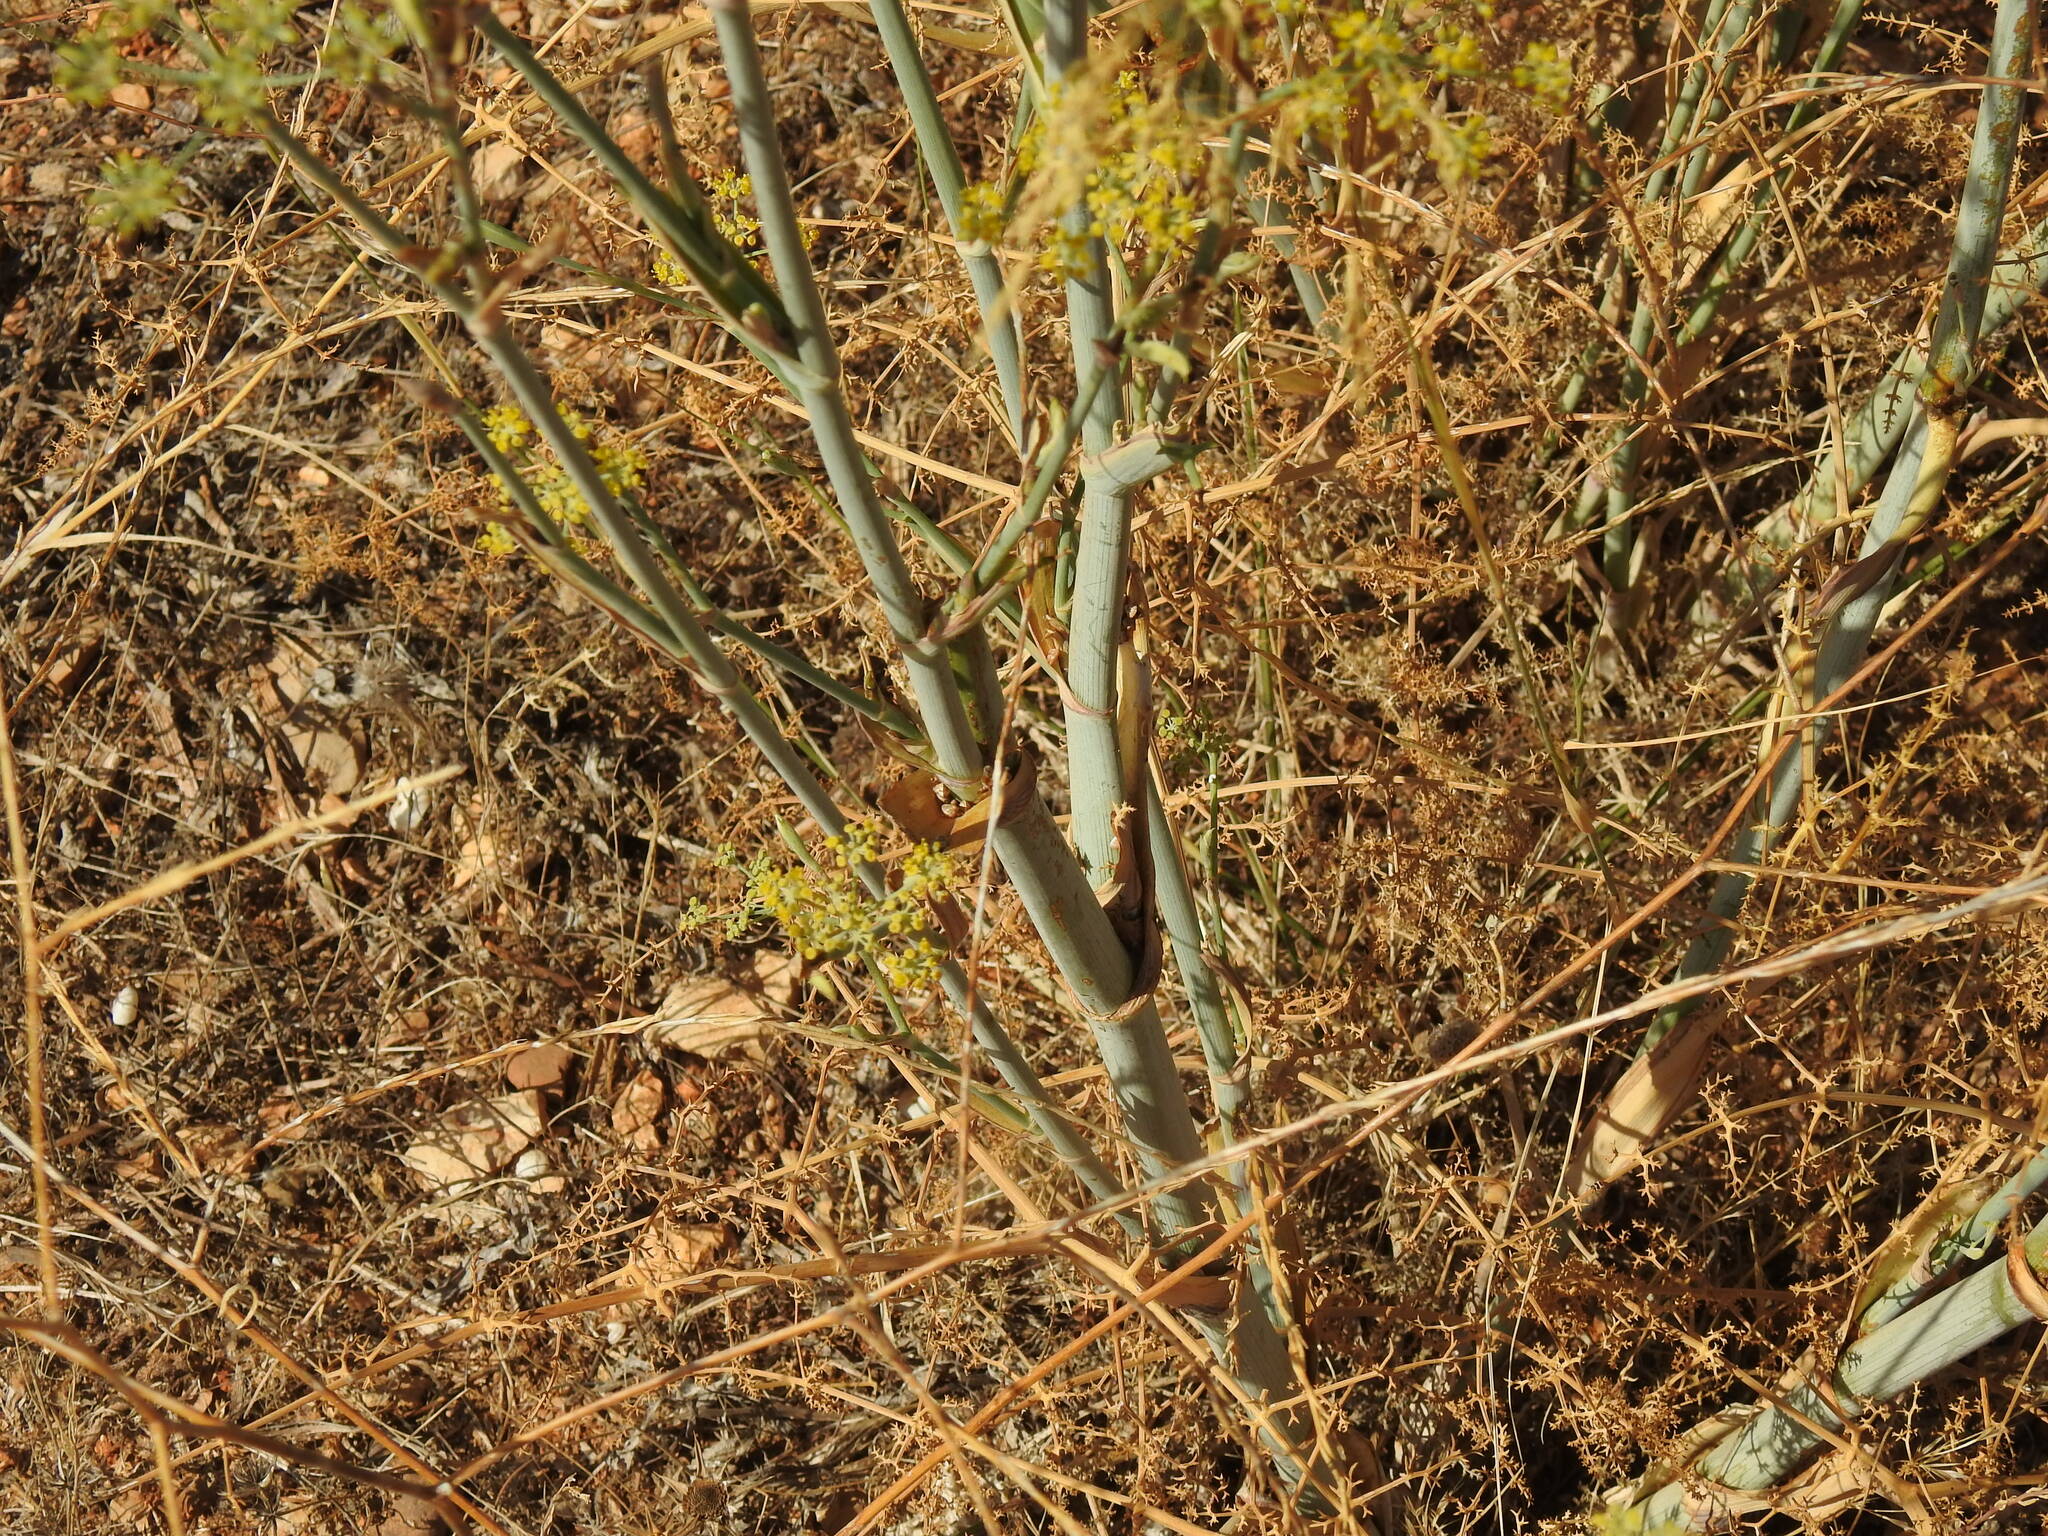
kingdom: Plantae
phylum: Tracheophyta
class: Magnoliopsida
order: Apiales
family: Apiaceae
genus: Foeniculum
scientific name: Foeniculum vulgare
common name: Fennel
